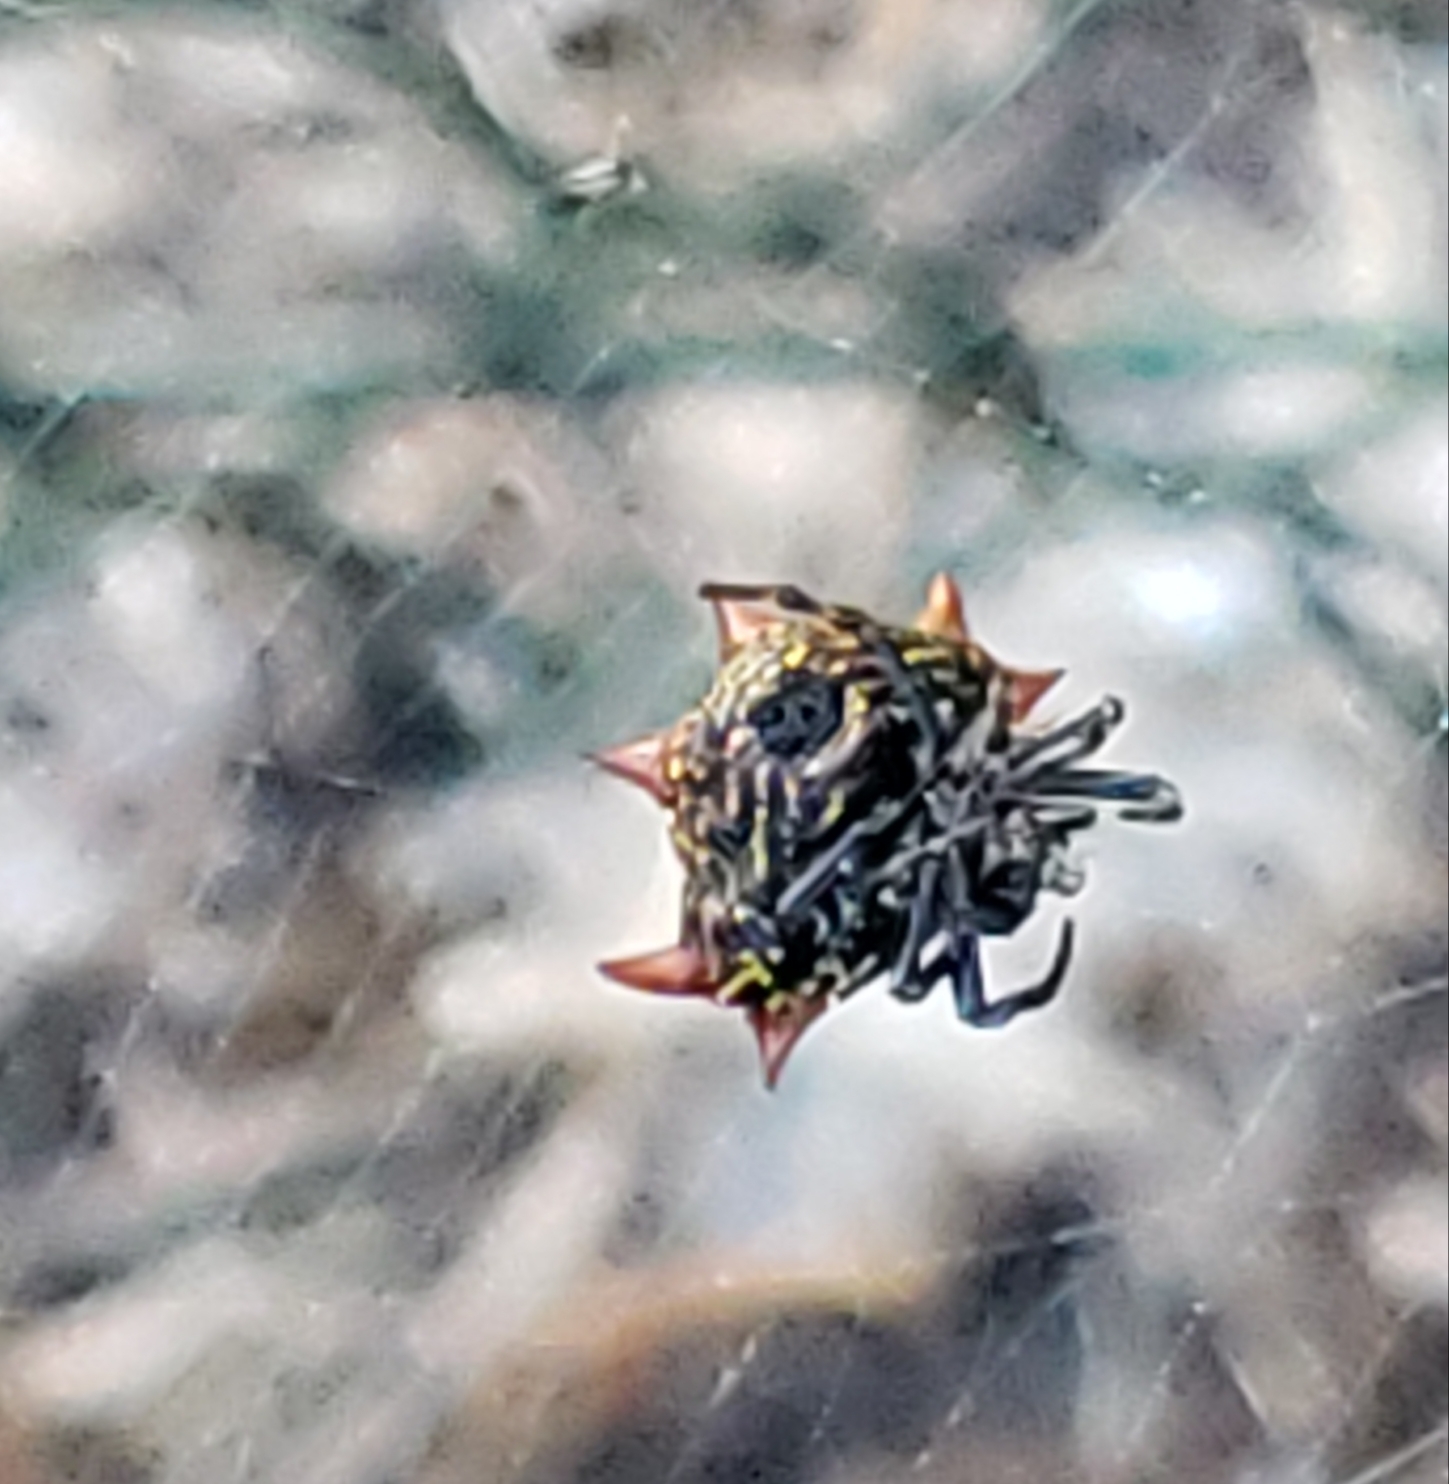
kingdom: Animalia
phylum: Arthropoda
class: Arachnida
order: Araneae
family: Araneidae
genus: Gasteracantha
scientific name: Gasteracantha cancriformis
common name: Orb weavers
